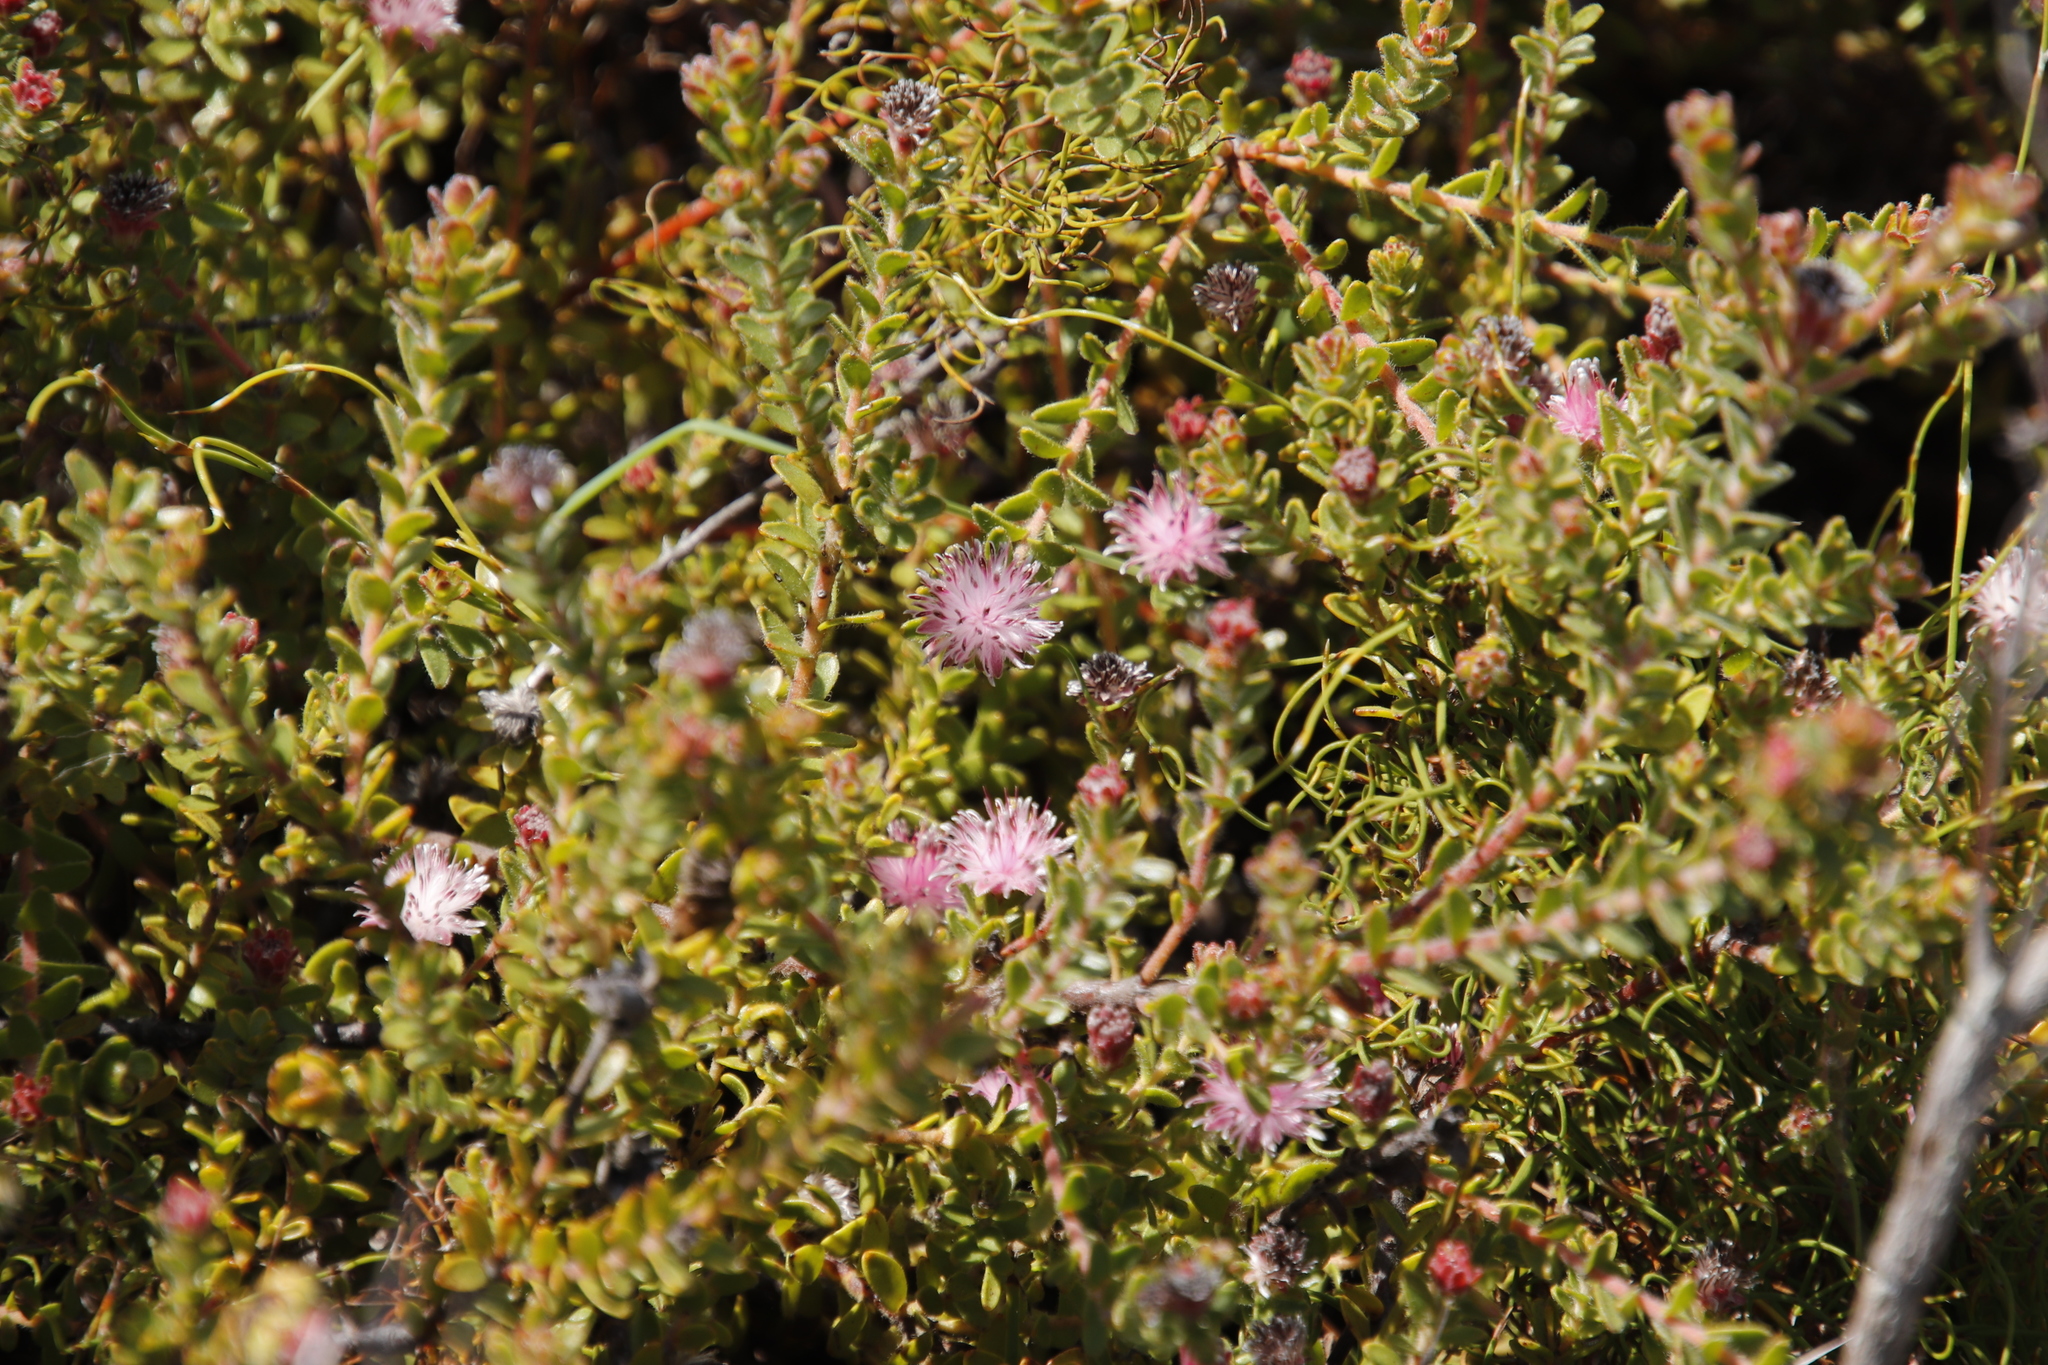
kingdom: Plantae
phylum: Tracheophyta
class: Magnoliopsida
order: Proteales
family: Proteaceae
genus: Diastella
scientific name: Diastella divaricata
